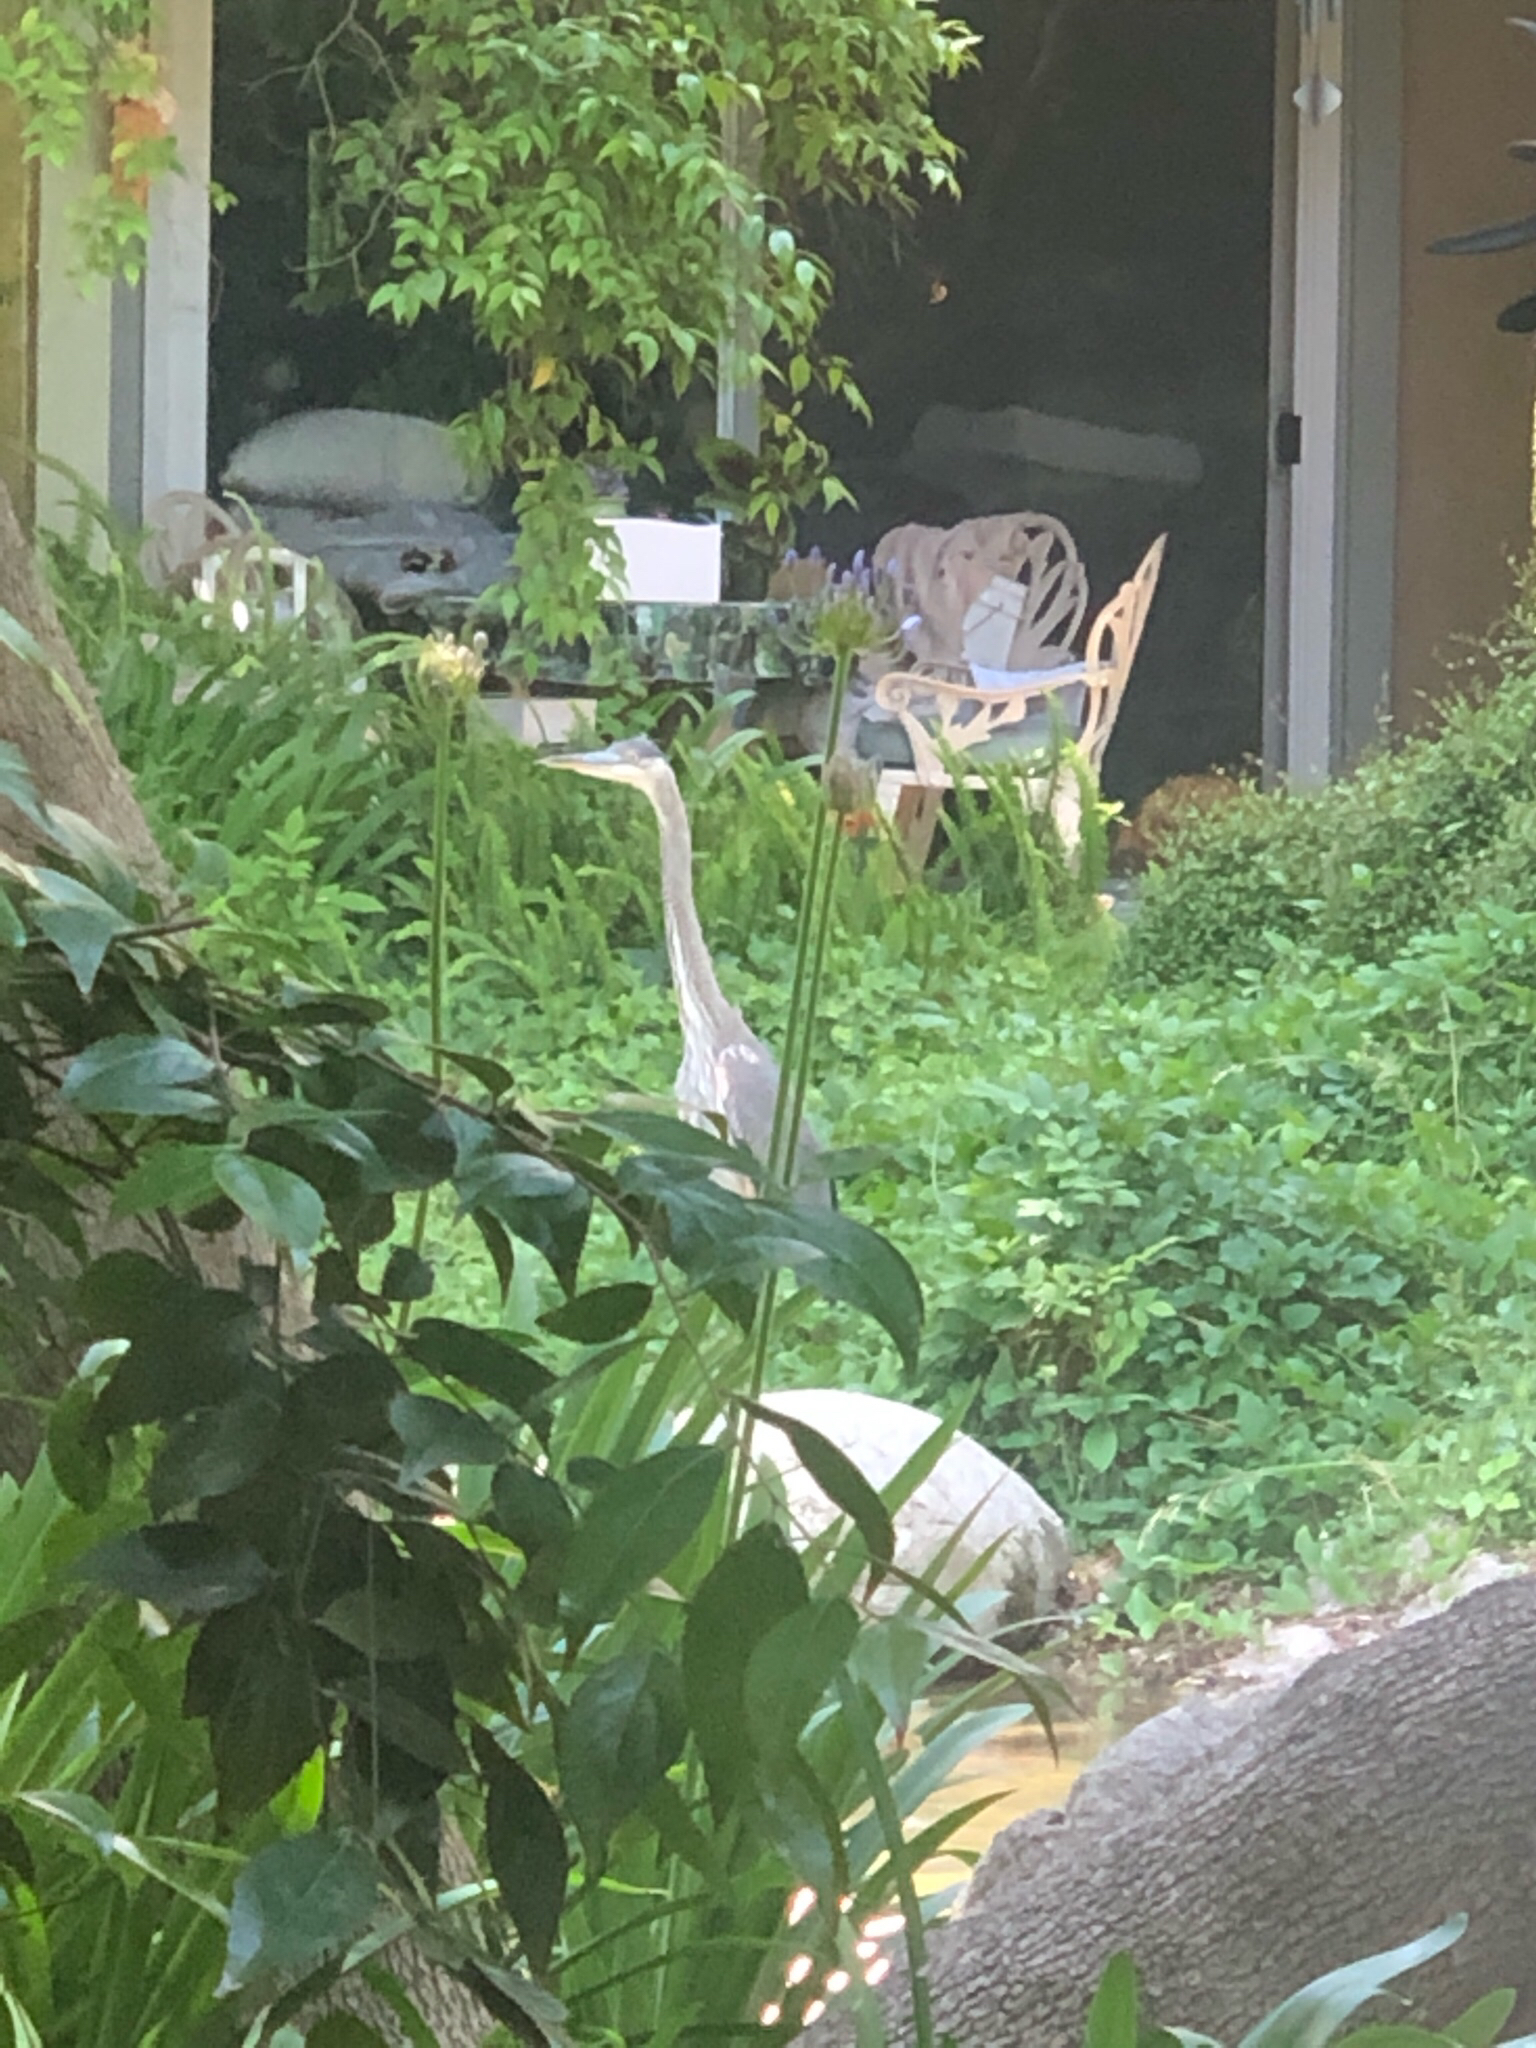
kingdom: Animalia
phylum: Chordata
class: Aves
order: Pelecaniformes
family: Ardeidae
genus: Ardea
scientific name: Ardea herodias
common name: Great blue heron
